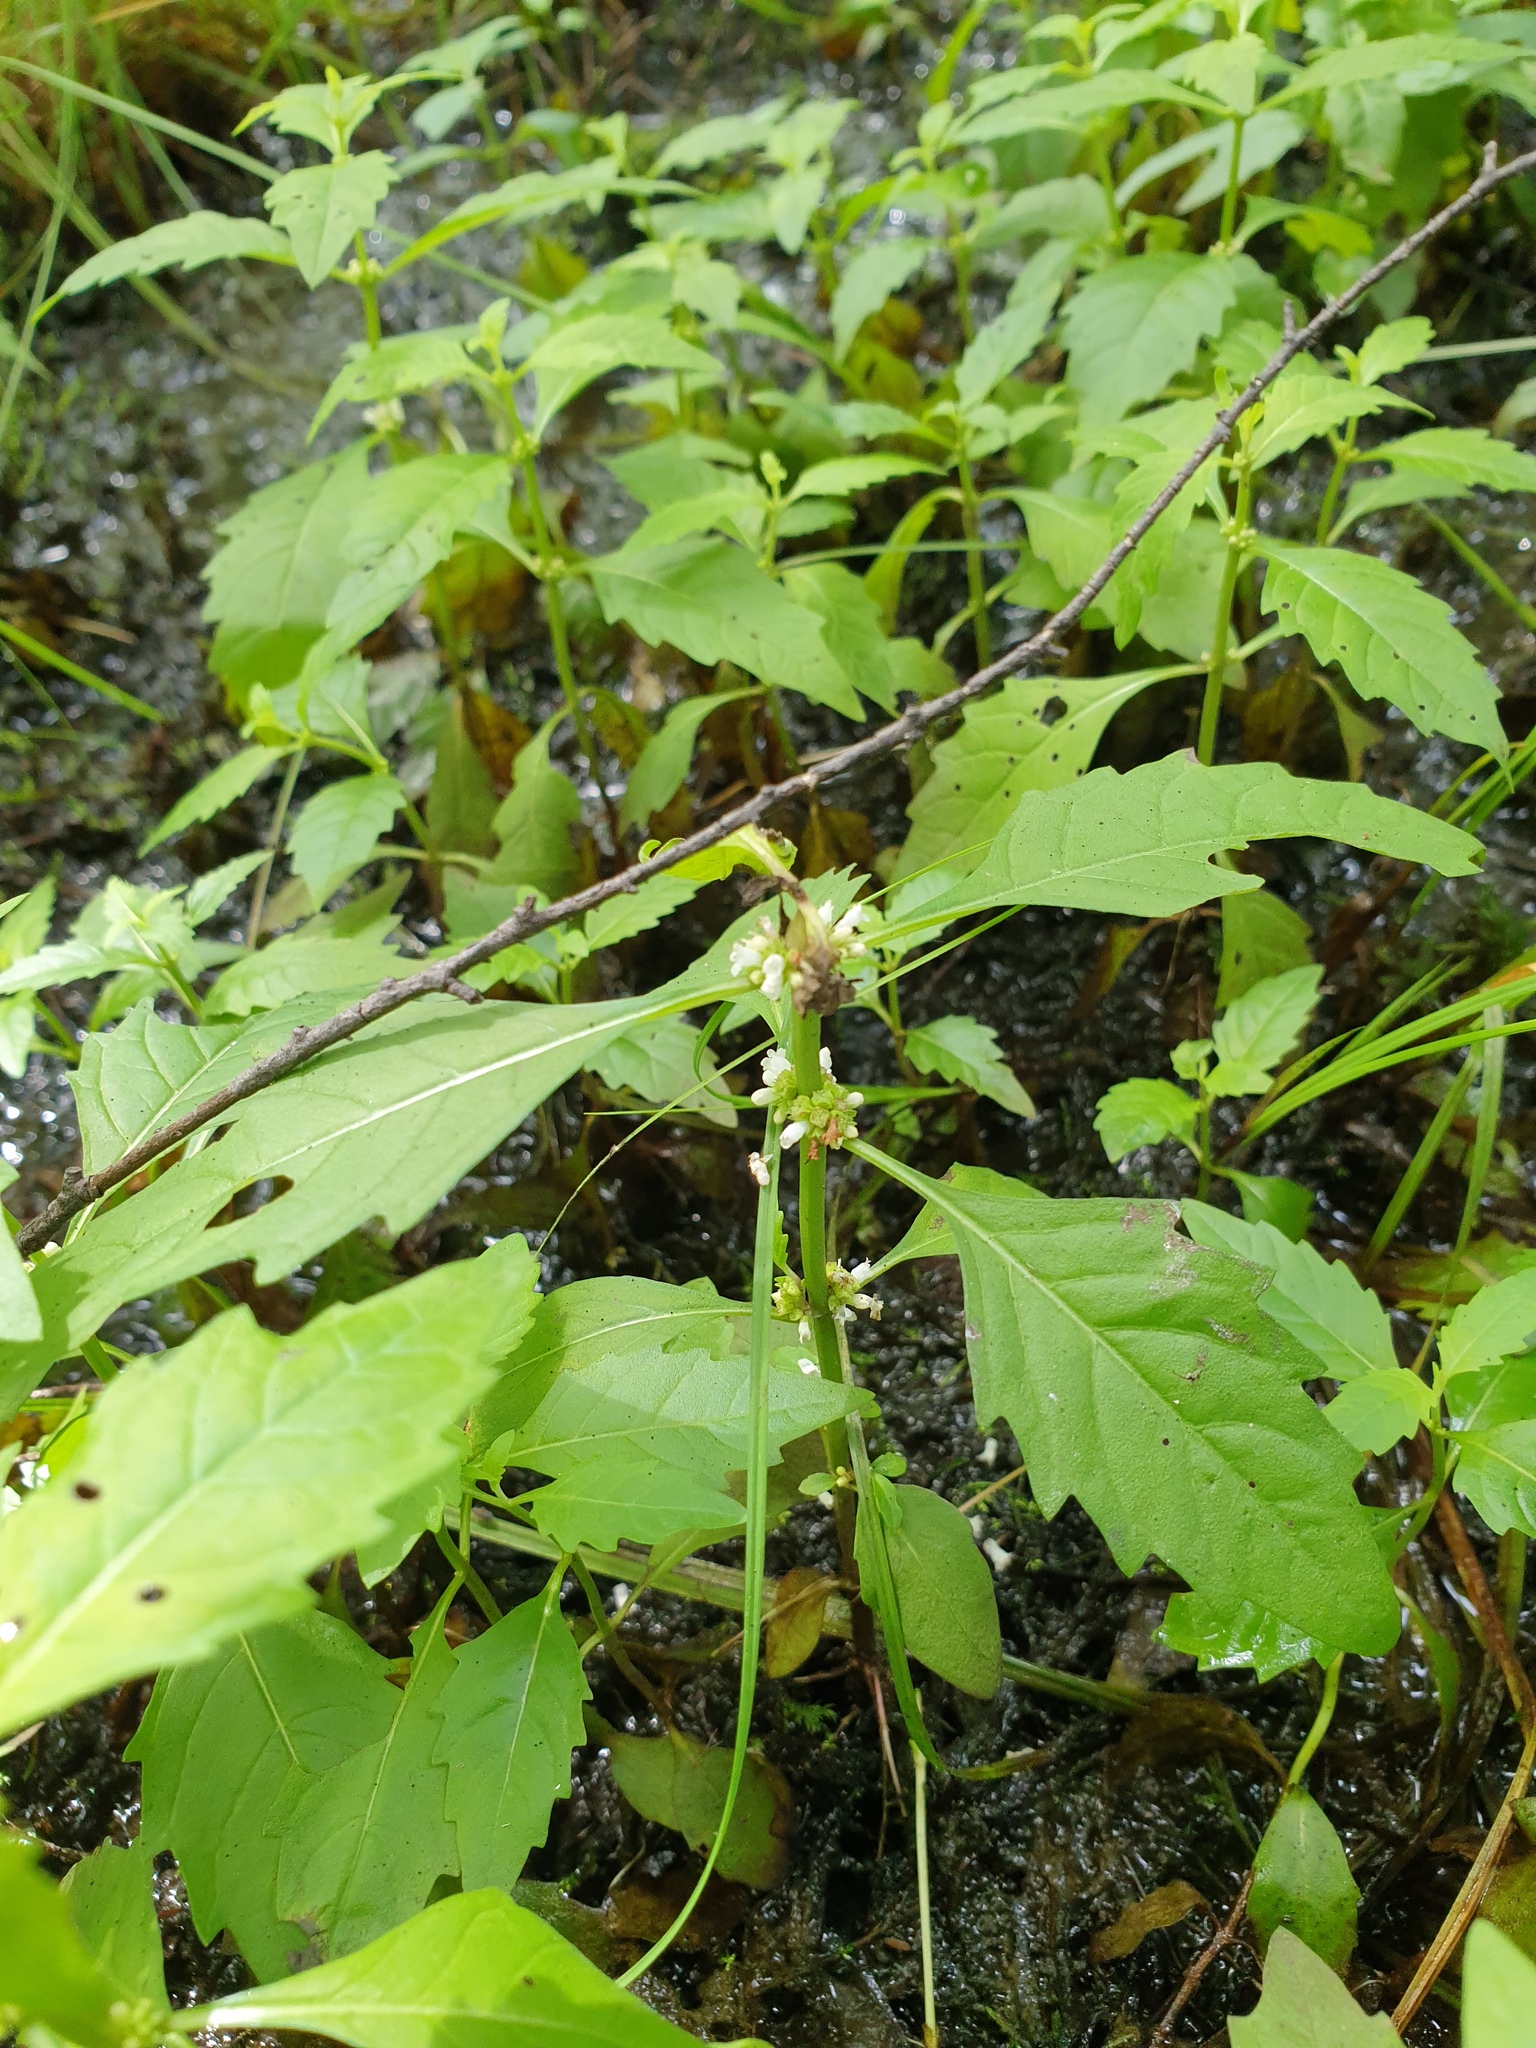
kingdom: Plantae
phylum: Tracheophyta
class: Magnoliopsida
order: Lamiales
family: Lamiaceae
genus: Lycopus
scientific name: Lycopus uniflorus
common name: Northern bugleweed
